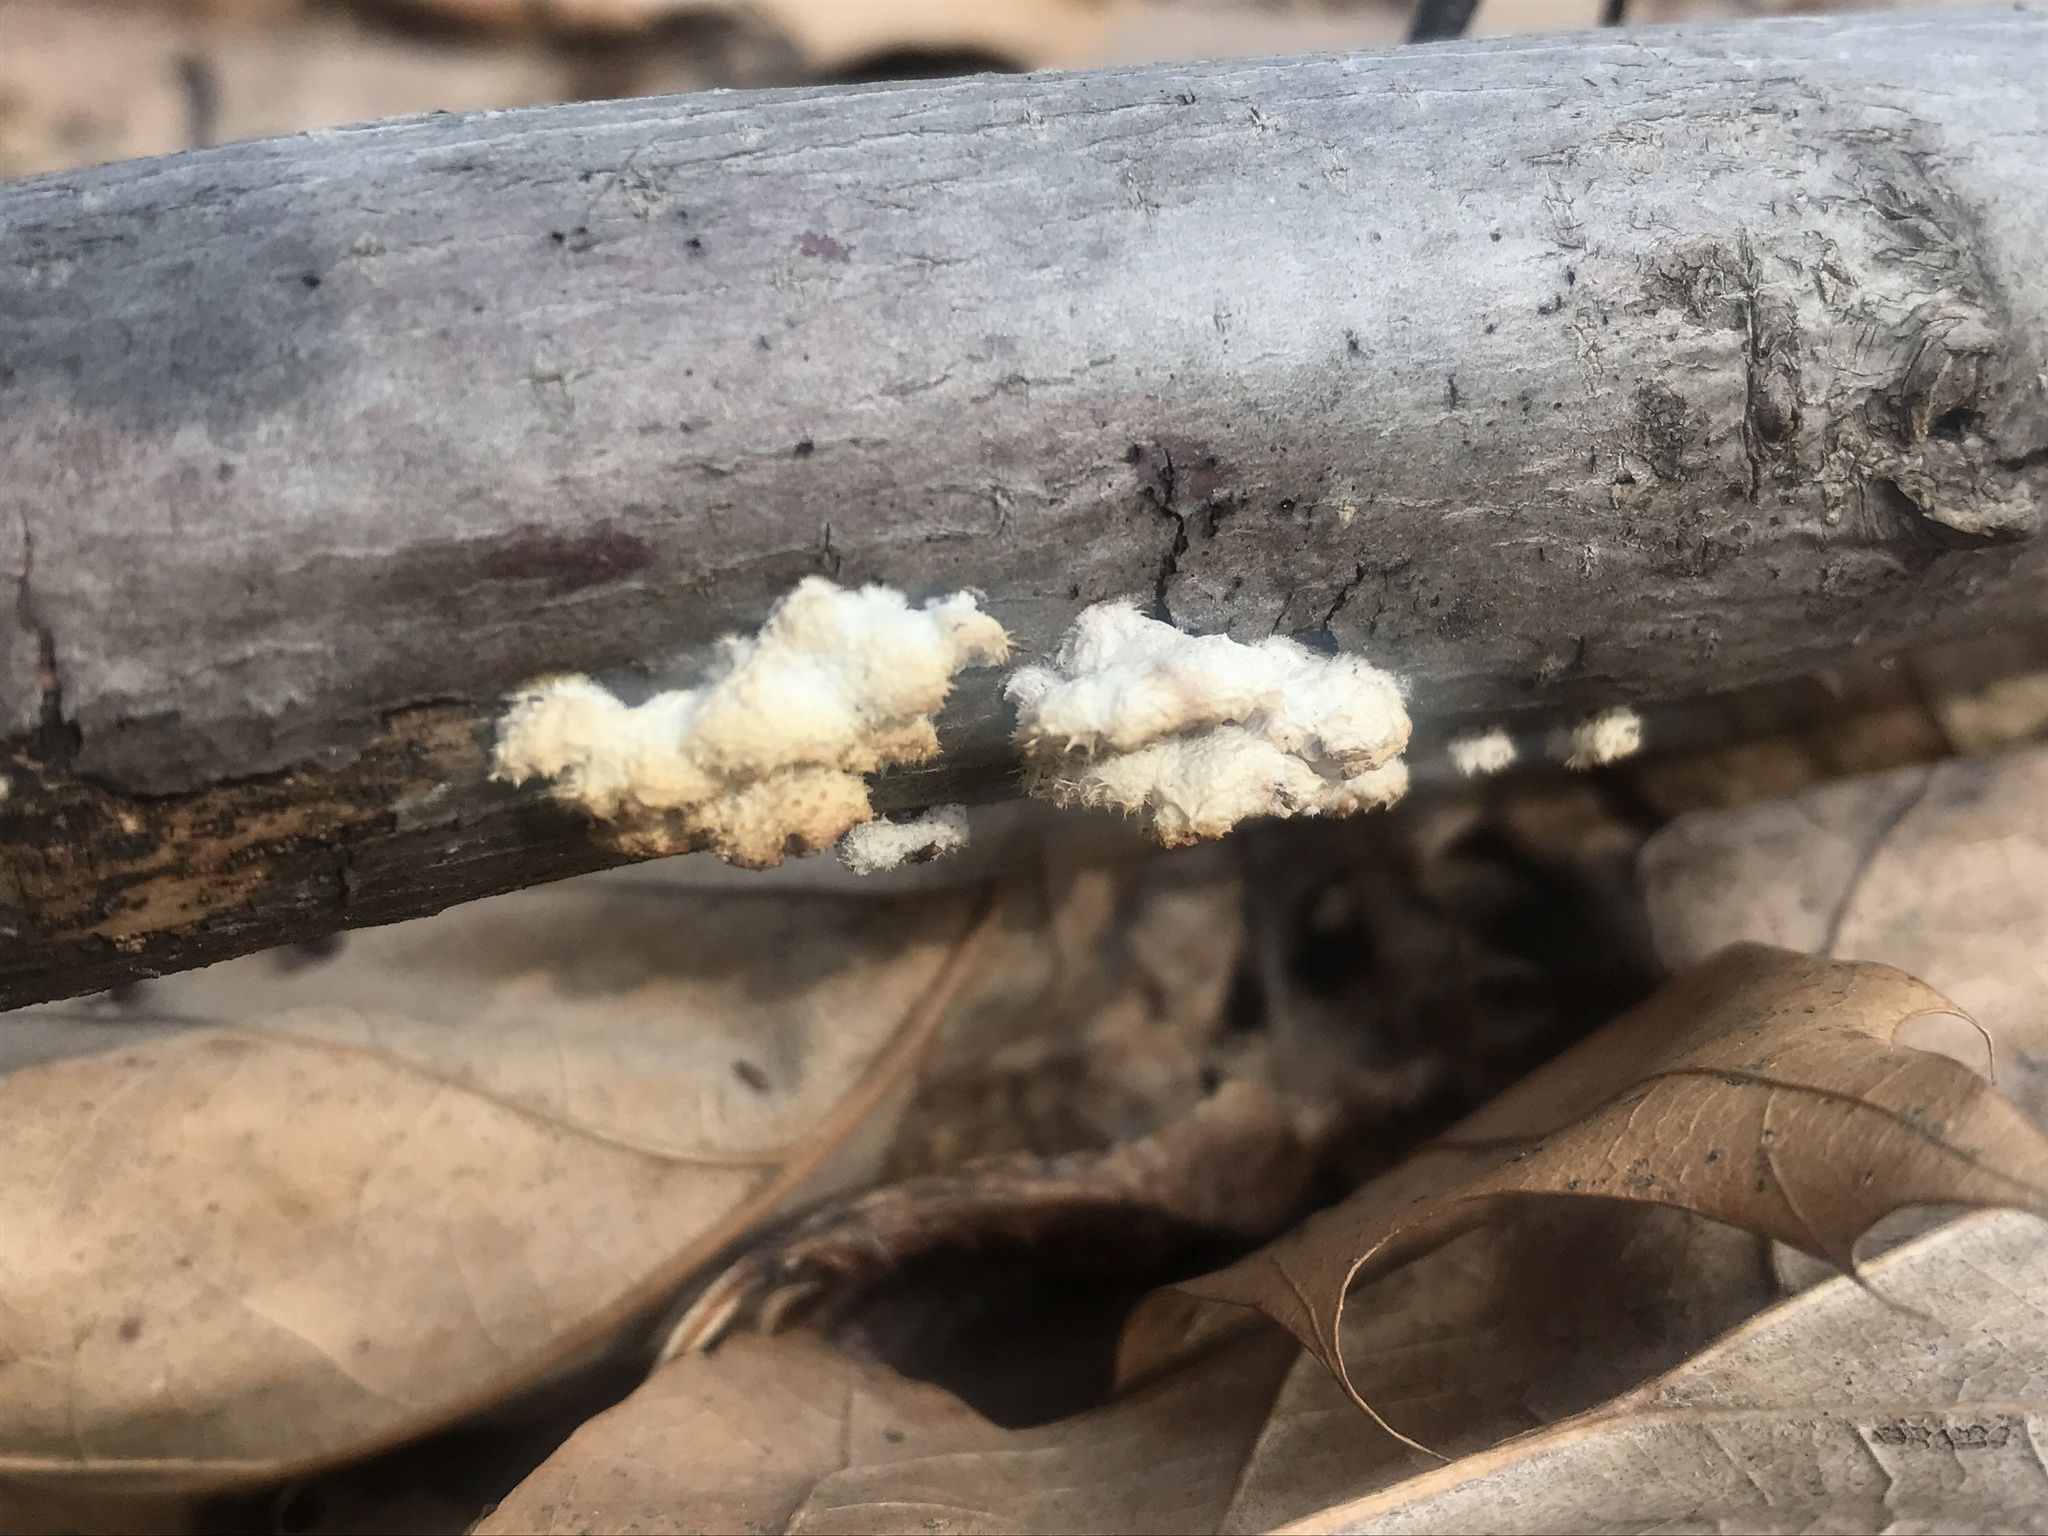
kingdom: Fungi
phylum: Basidiomycota
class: Agaricomycetes
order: Agaricales
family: Schizophyllaceae
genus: Schizophyllum
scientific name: Schizophyllum commune
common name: Common porecrust
